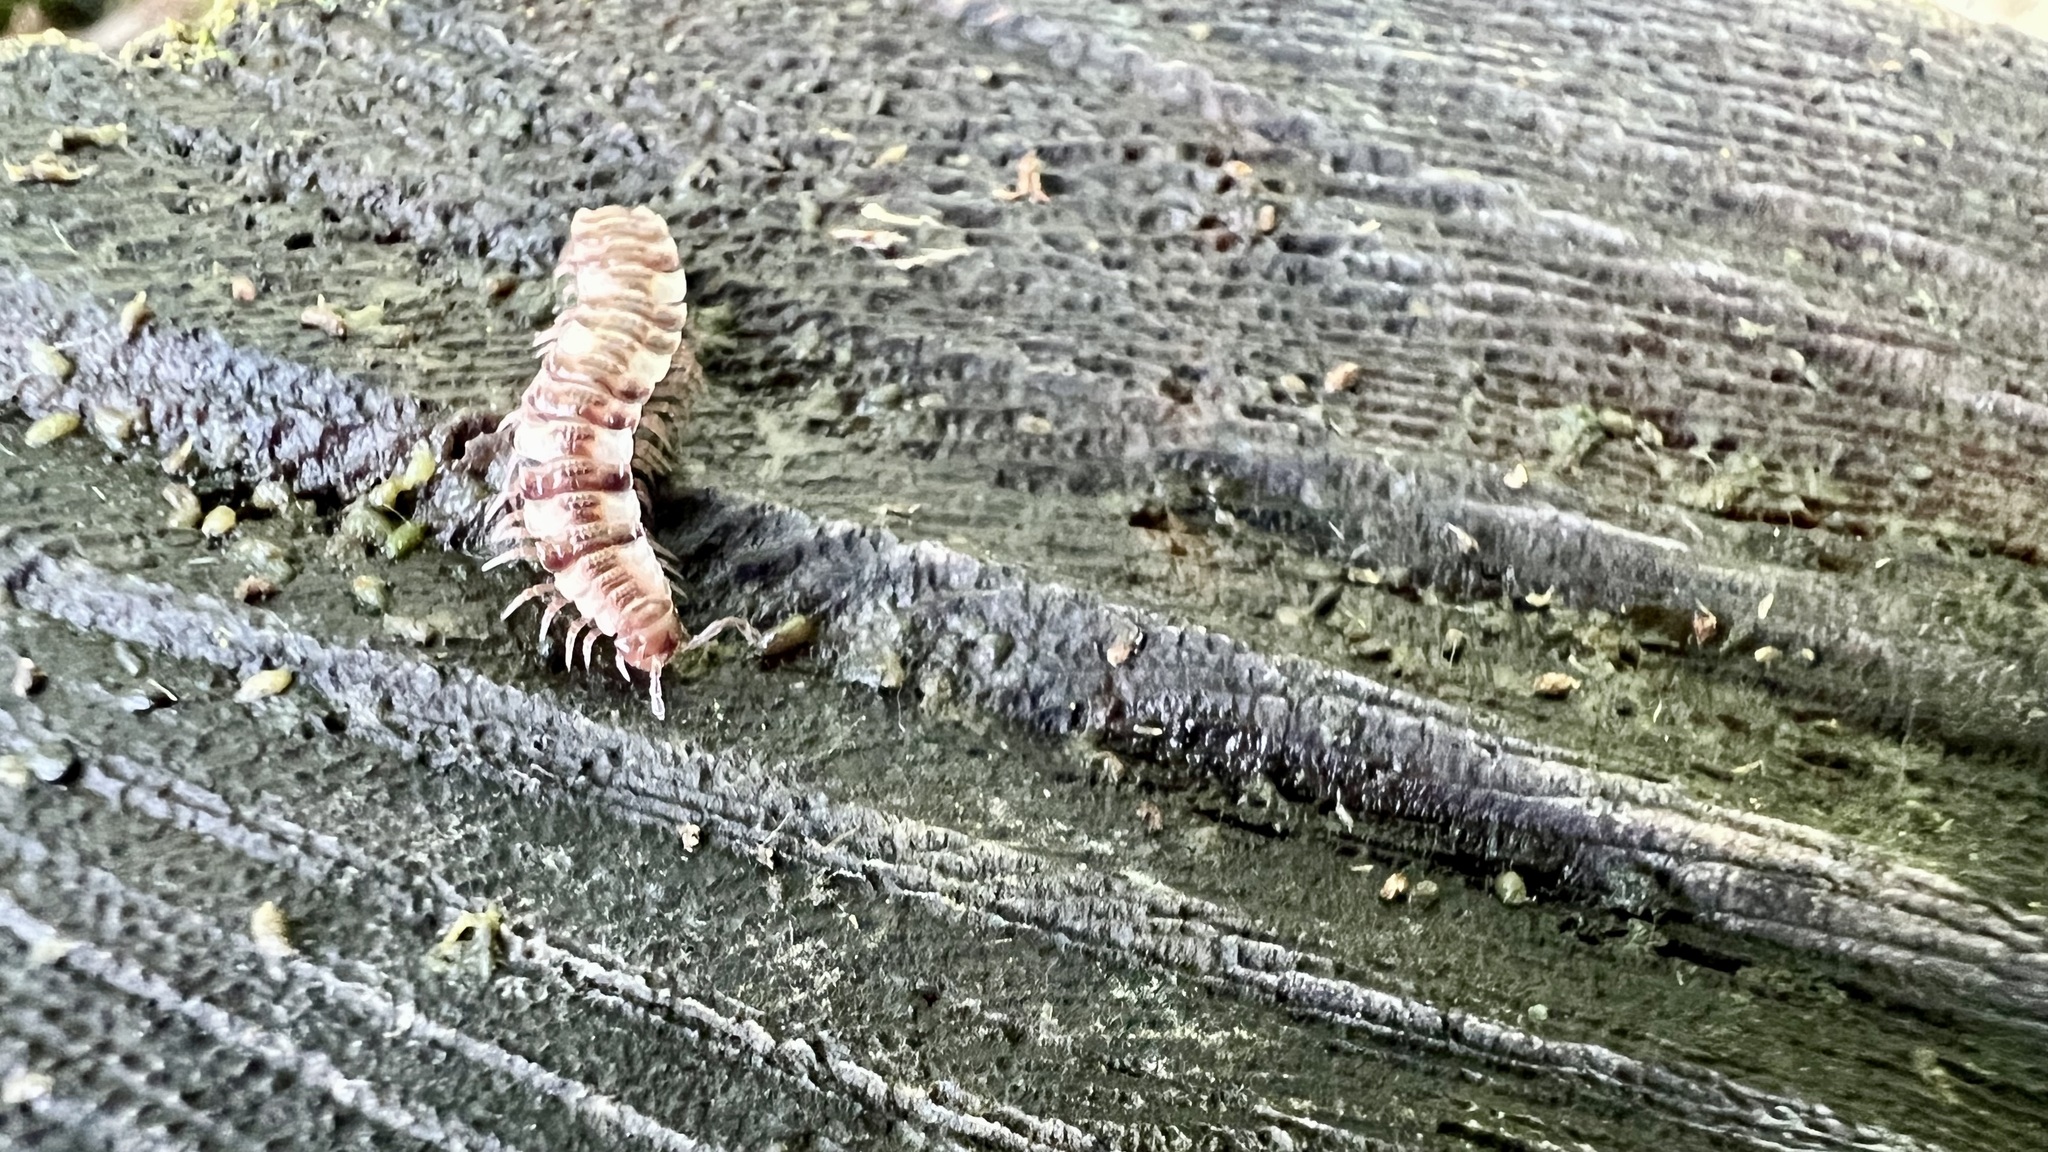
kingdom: Animalia
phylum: Arthropoda
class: Diplopoda
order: Polydesmida
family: Polydesmidae
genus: Polydesmus
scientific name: Polydesmus complanatus
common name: Flat-backed millipede
